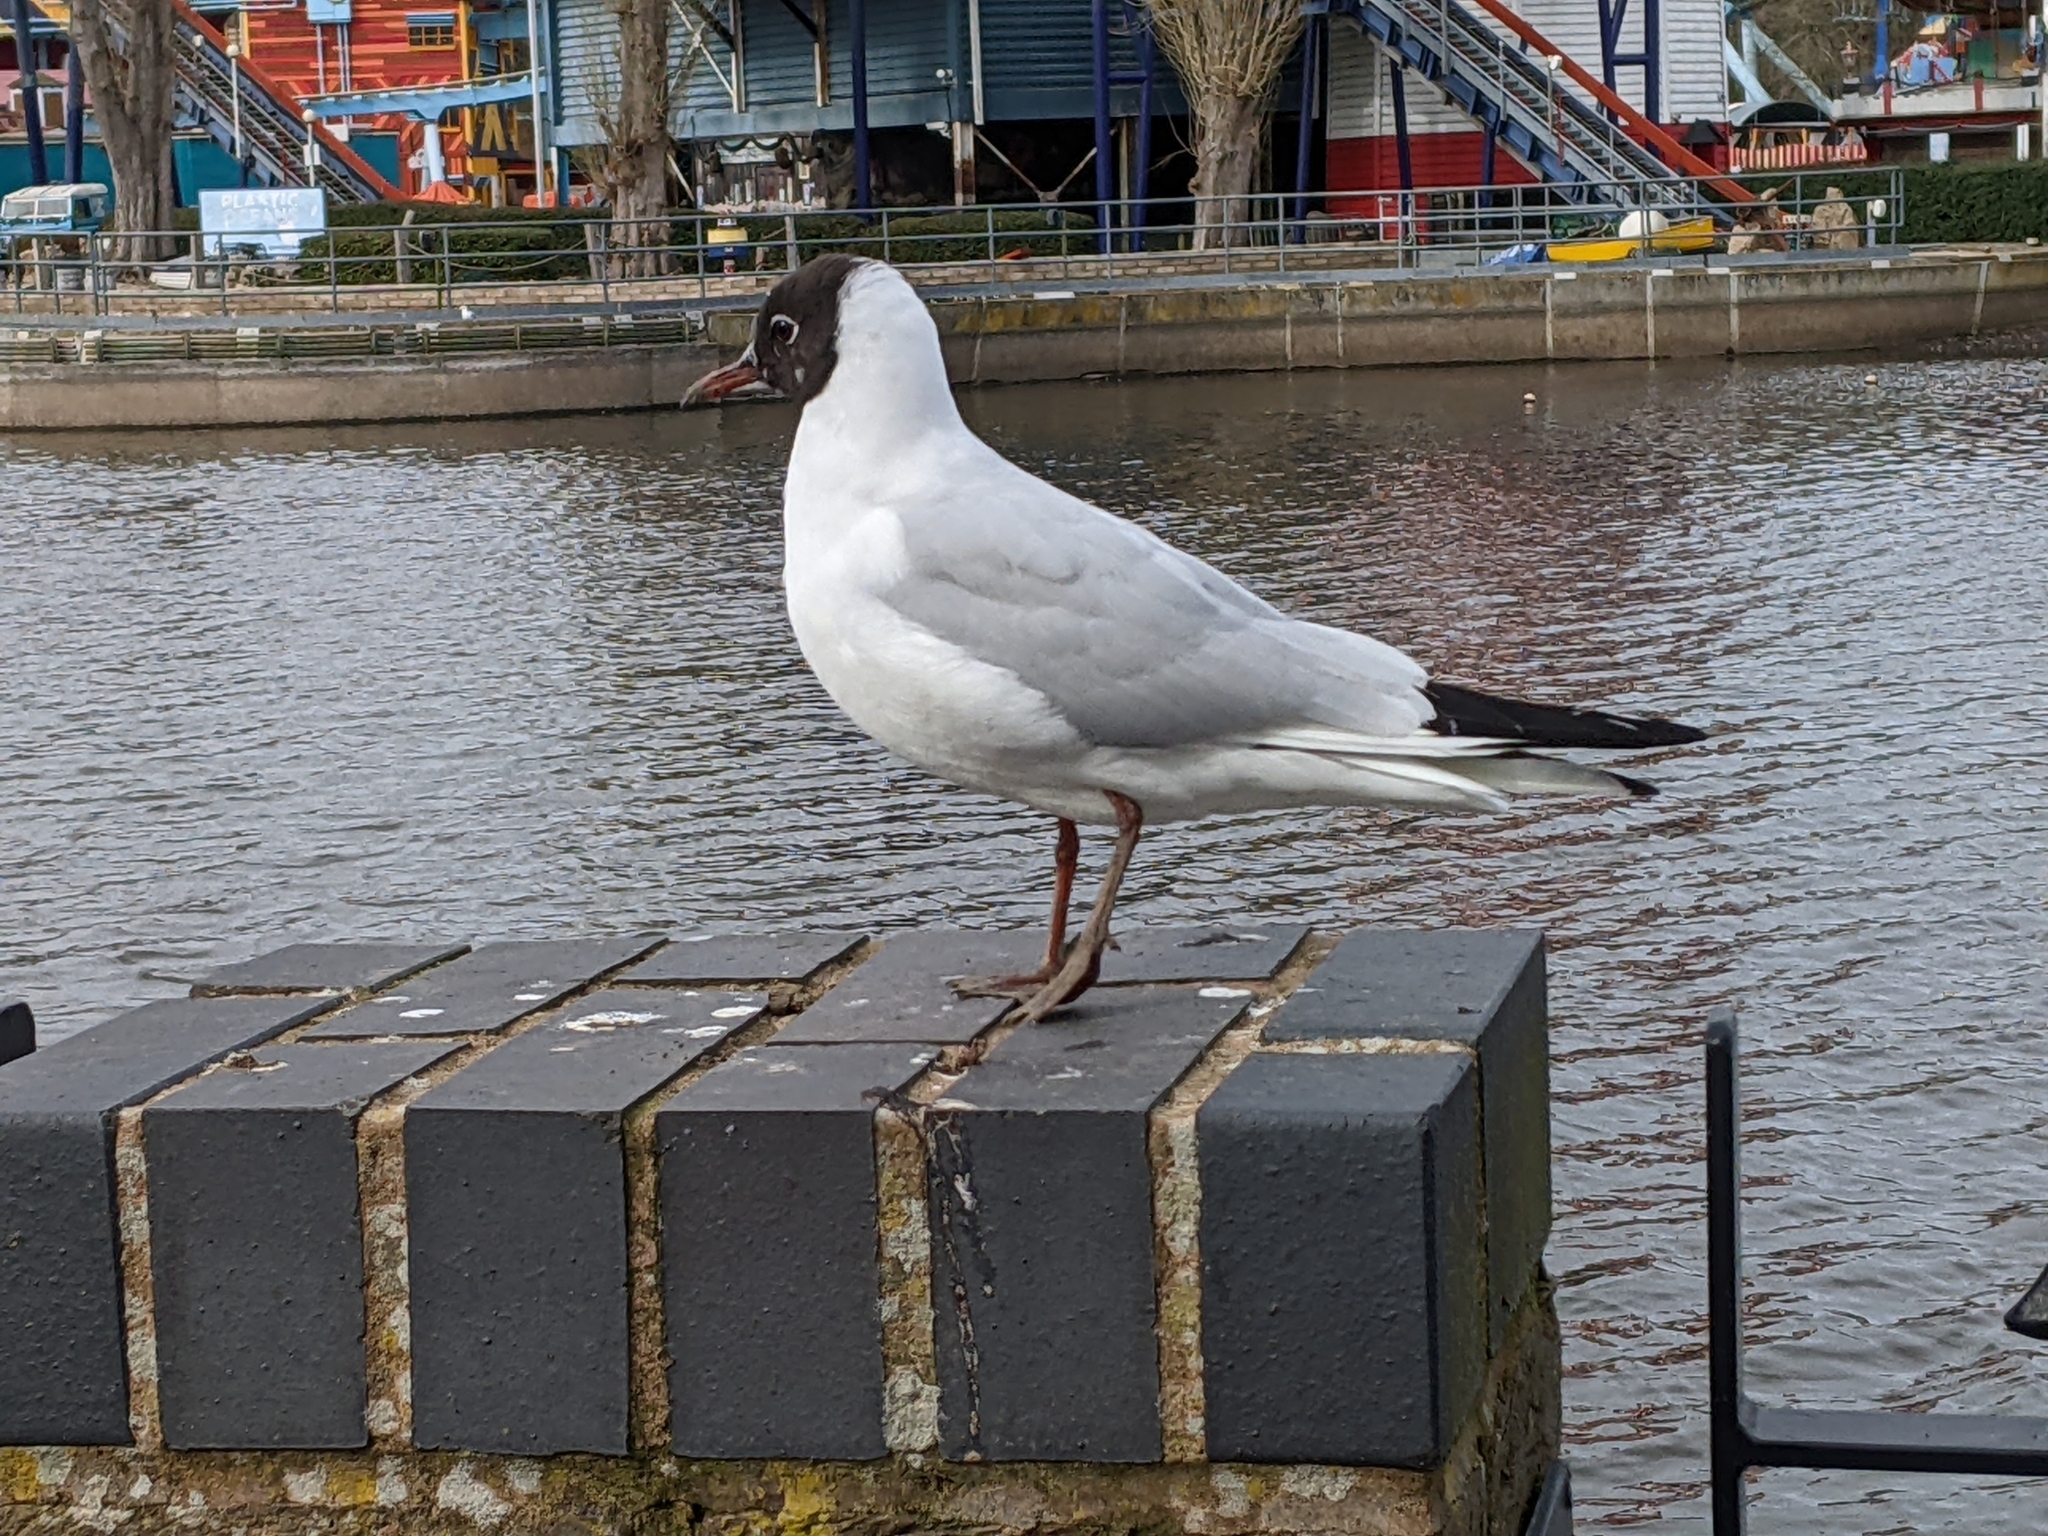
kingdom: Animalia
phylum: Chordata
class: Aves
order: Charadriiformes
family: Laridae
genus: Chroicocephalus
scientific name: Chroicocephalus ridibundus
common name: Black-headed gull
